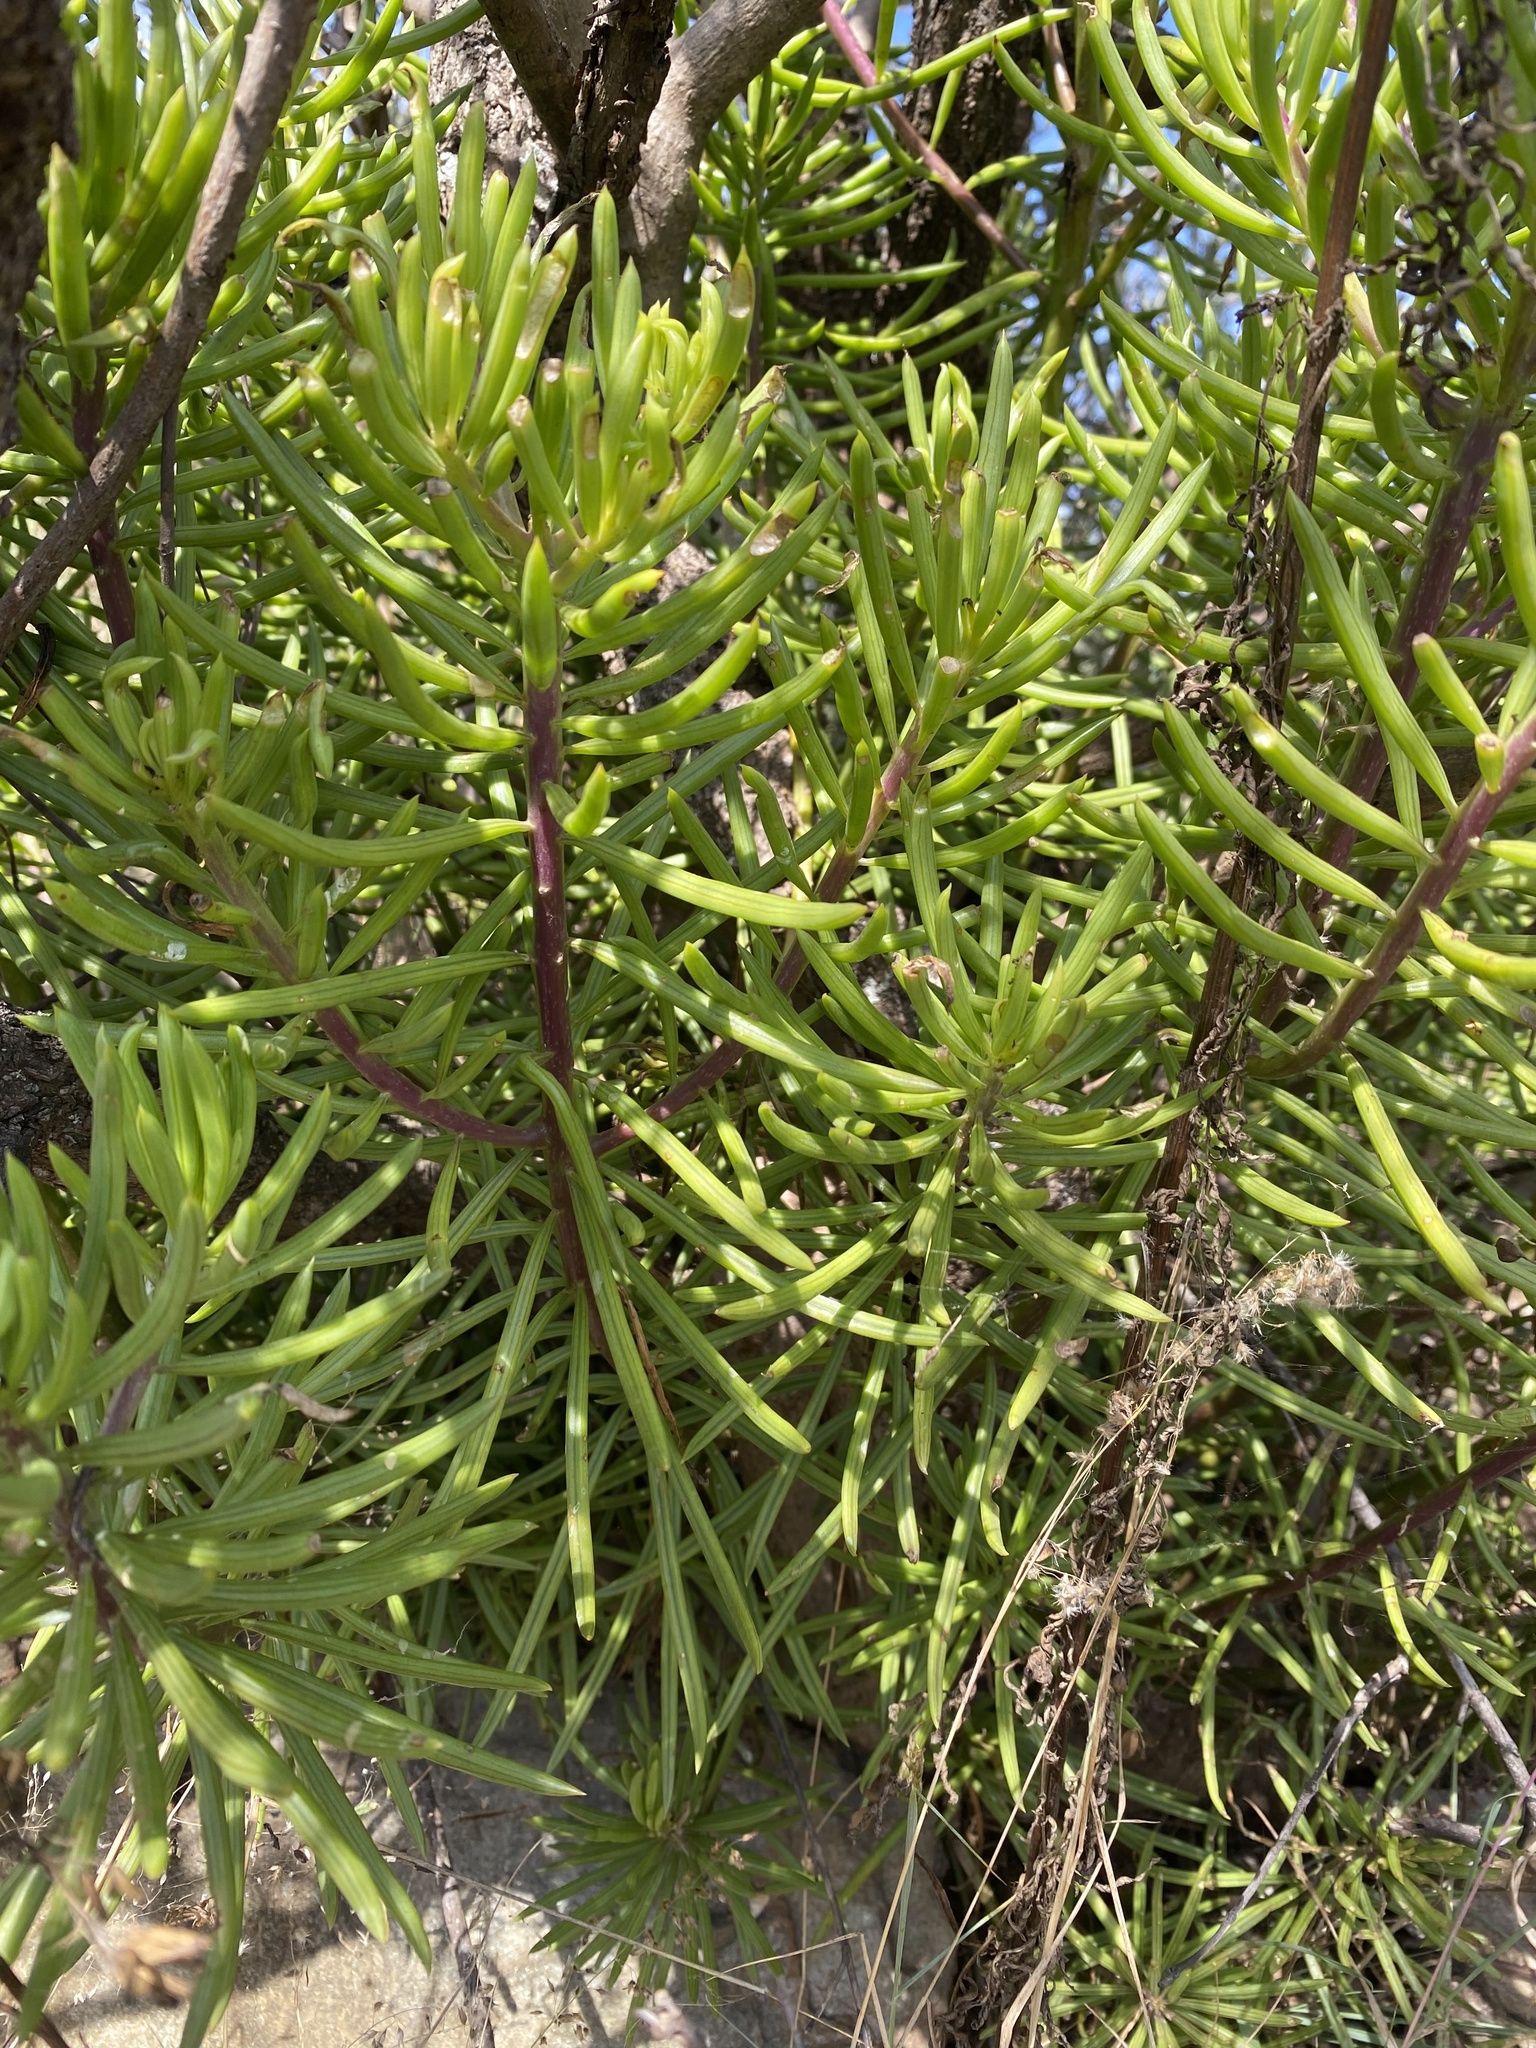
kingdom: Plantae
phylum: Tracheophyta
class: Magnoliopsida
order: Asterales
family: Asteraceae
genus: Kleinia
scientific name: Kleinia barbertonica
